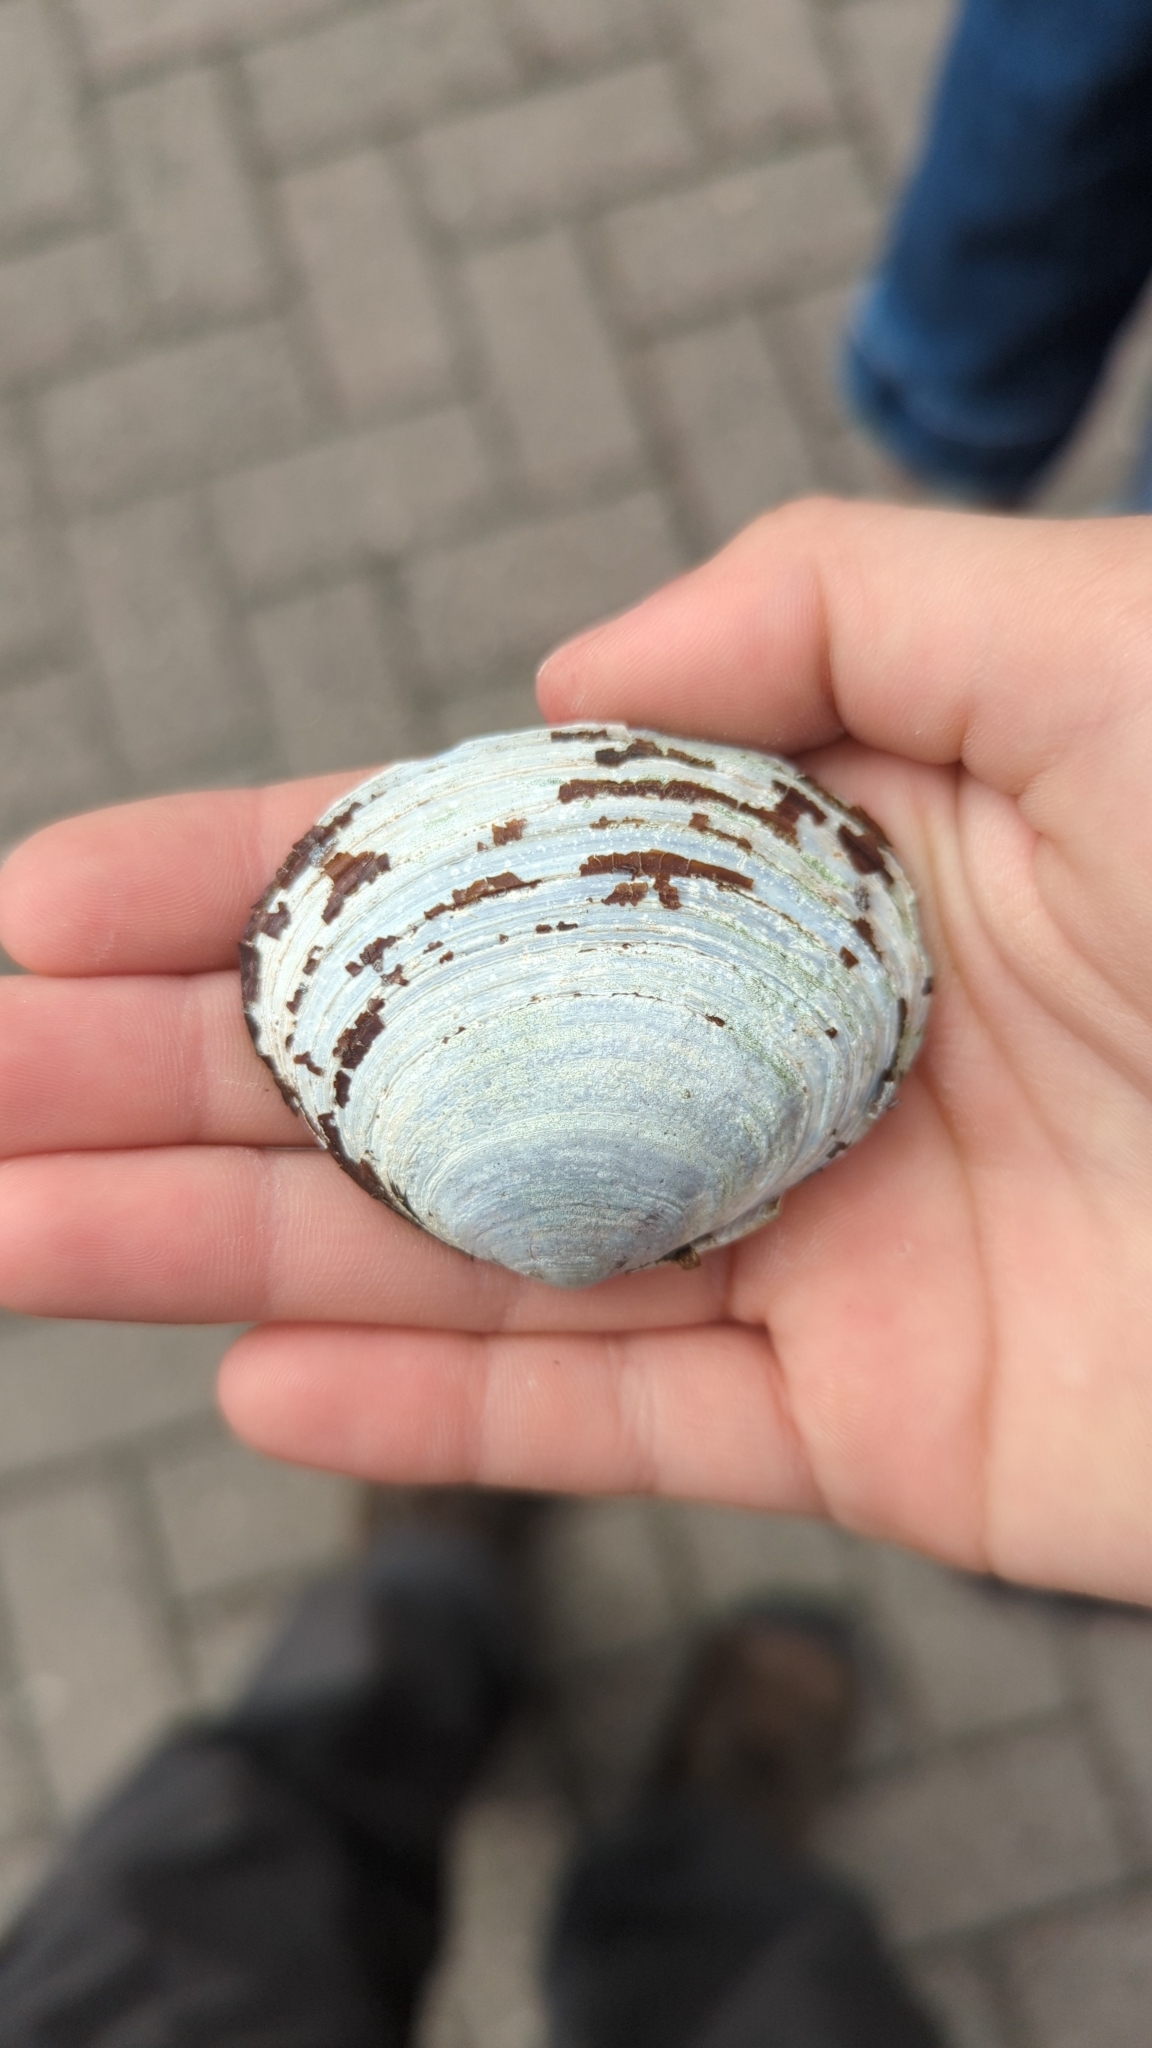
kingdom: Animalia
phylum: Mollusca
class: Bivalvia
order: Cardiida
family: Psammobiidae
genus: Nuttallia
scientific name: Nuttallia obscurata
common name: Purple mahogany-clam
